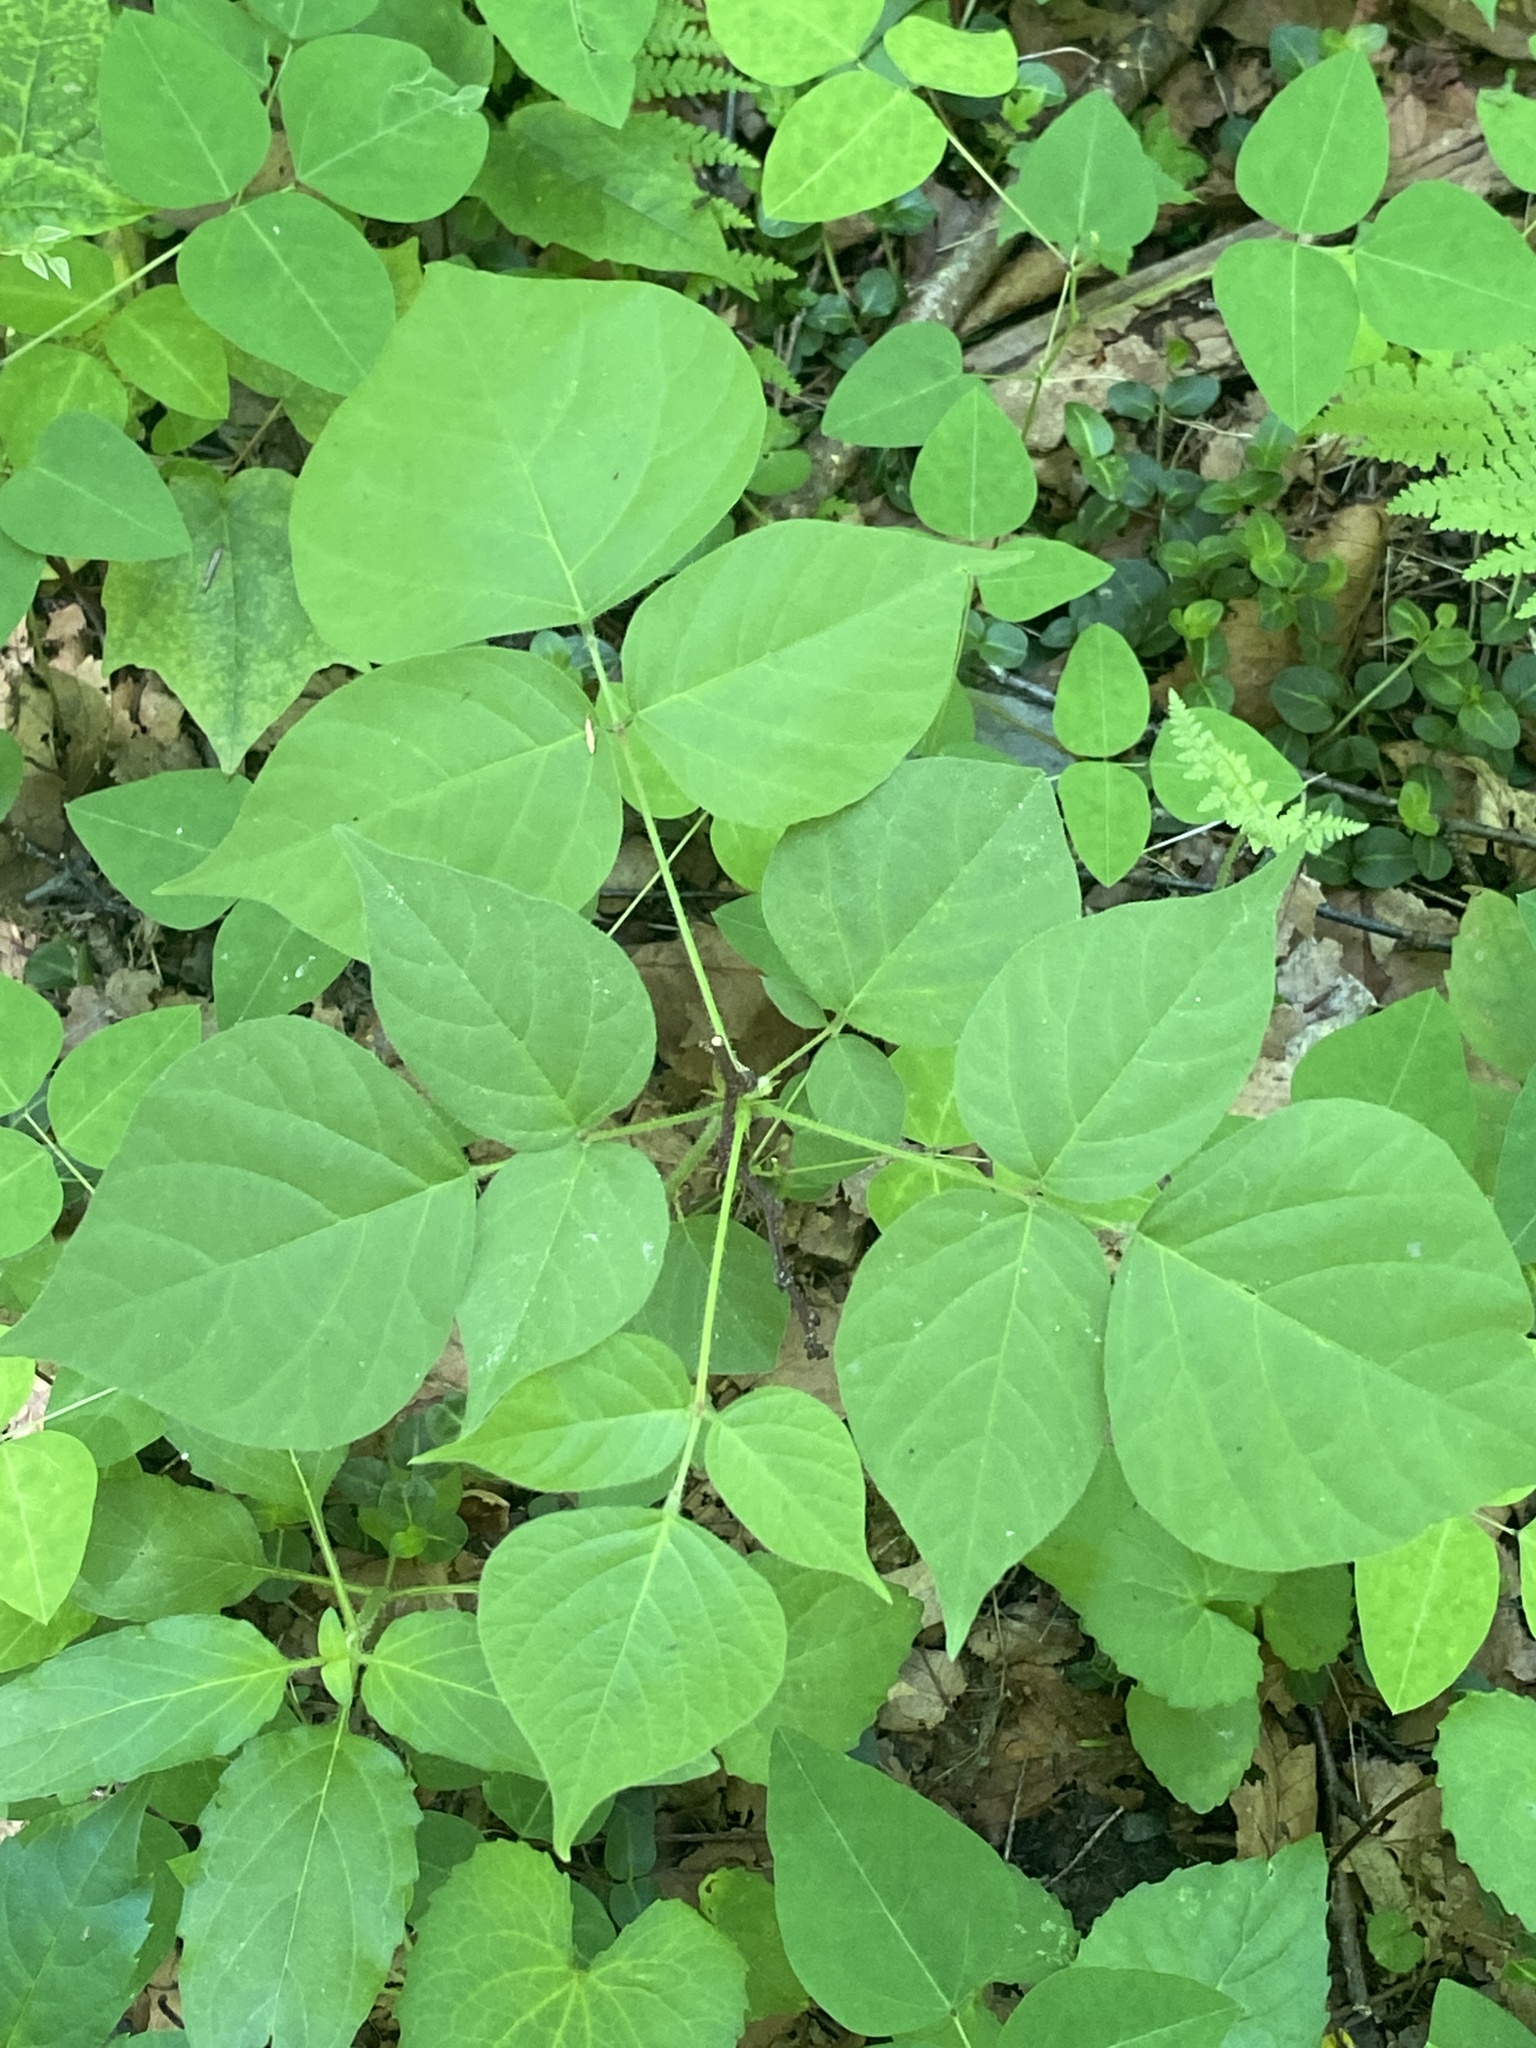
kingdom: Plantae
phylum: Tracheophyta
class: Magnoliopsida
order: Fabales
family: Fabaceae
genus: Hylodesmum
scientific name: Hylodesmum glutinosum
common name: Clustered-leaved tick-trefoil
